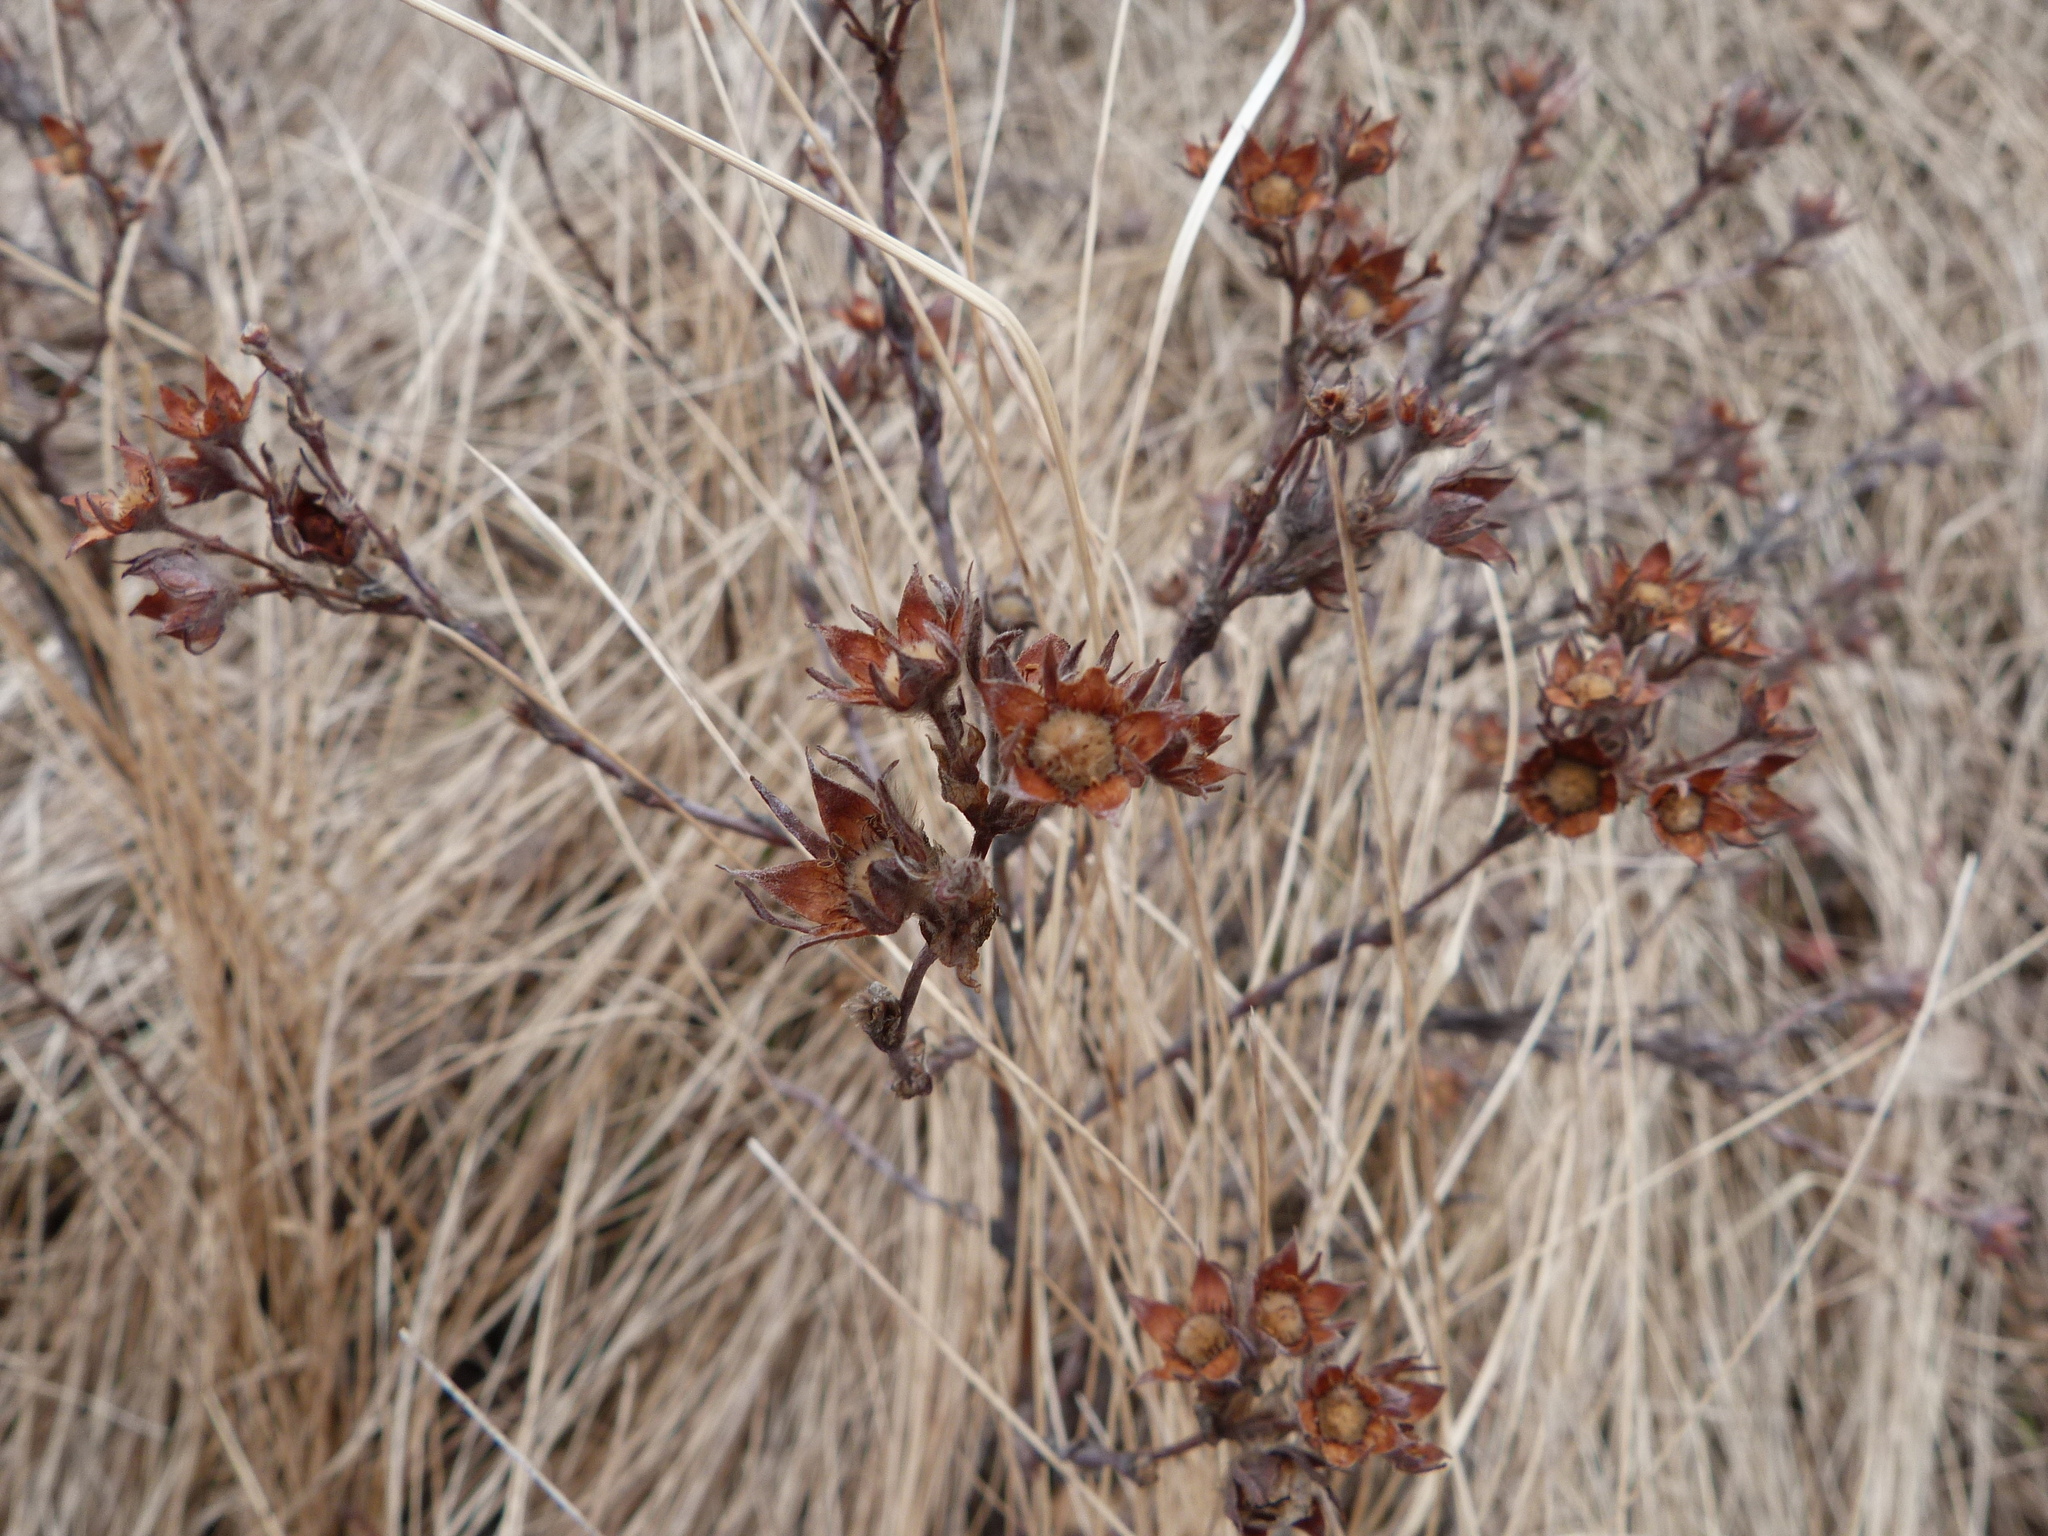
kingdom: Plantae
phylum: Tracheophyta
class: Magnoliopsida
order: Rosales
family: Rosaceae
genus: Dasiphora
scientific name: Dasiphora fruticosa
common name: Shrubby cinquefoil
